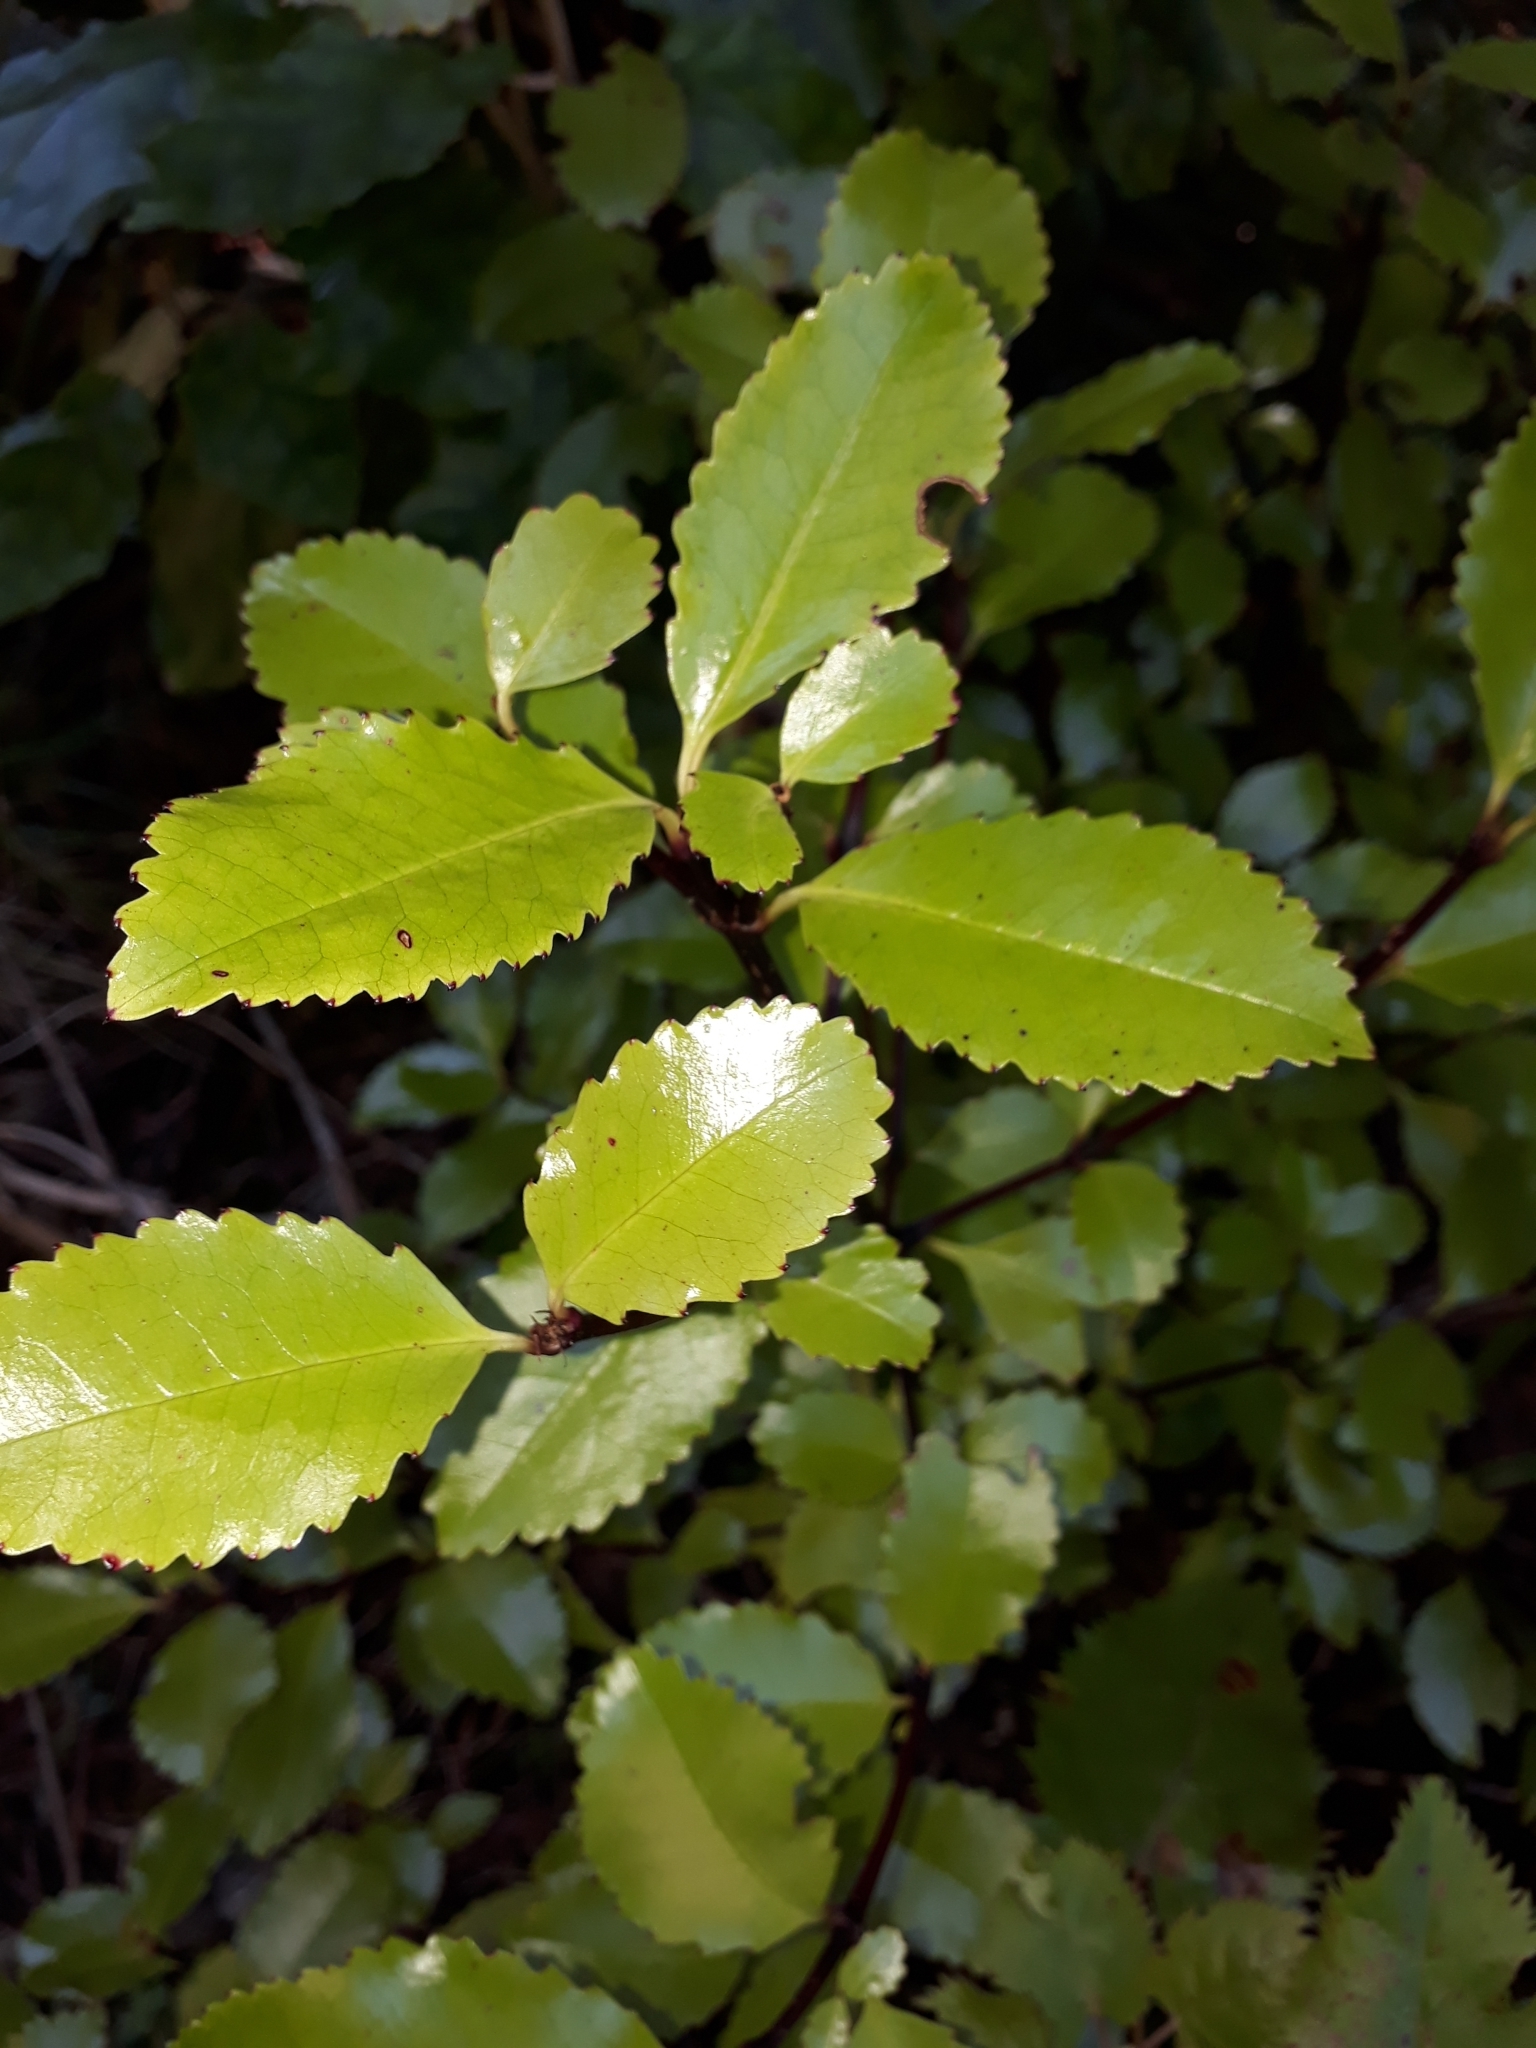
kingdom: Plantae
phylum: Tracheophyta
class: Magnoliopsida
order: Chloranthales
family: Chloranthaceae
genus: Ascarina
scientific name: Ascarina lucida
